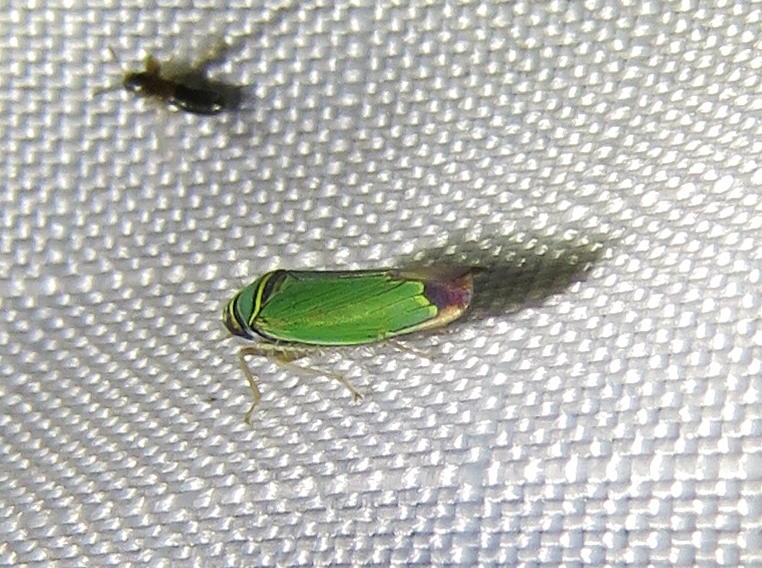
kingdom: Animalia
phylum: Arthropoda
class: Insecta
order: Hemiptera
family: Cicadellidae
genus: Tylozygus
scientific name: Tylozygus geometricus
